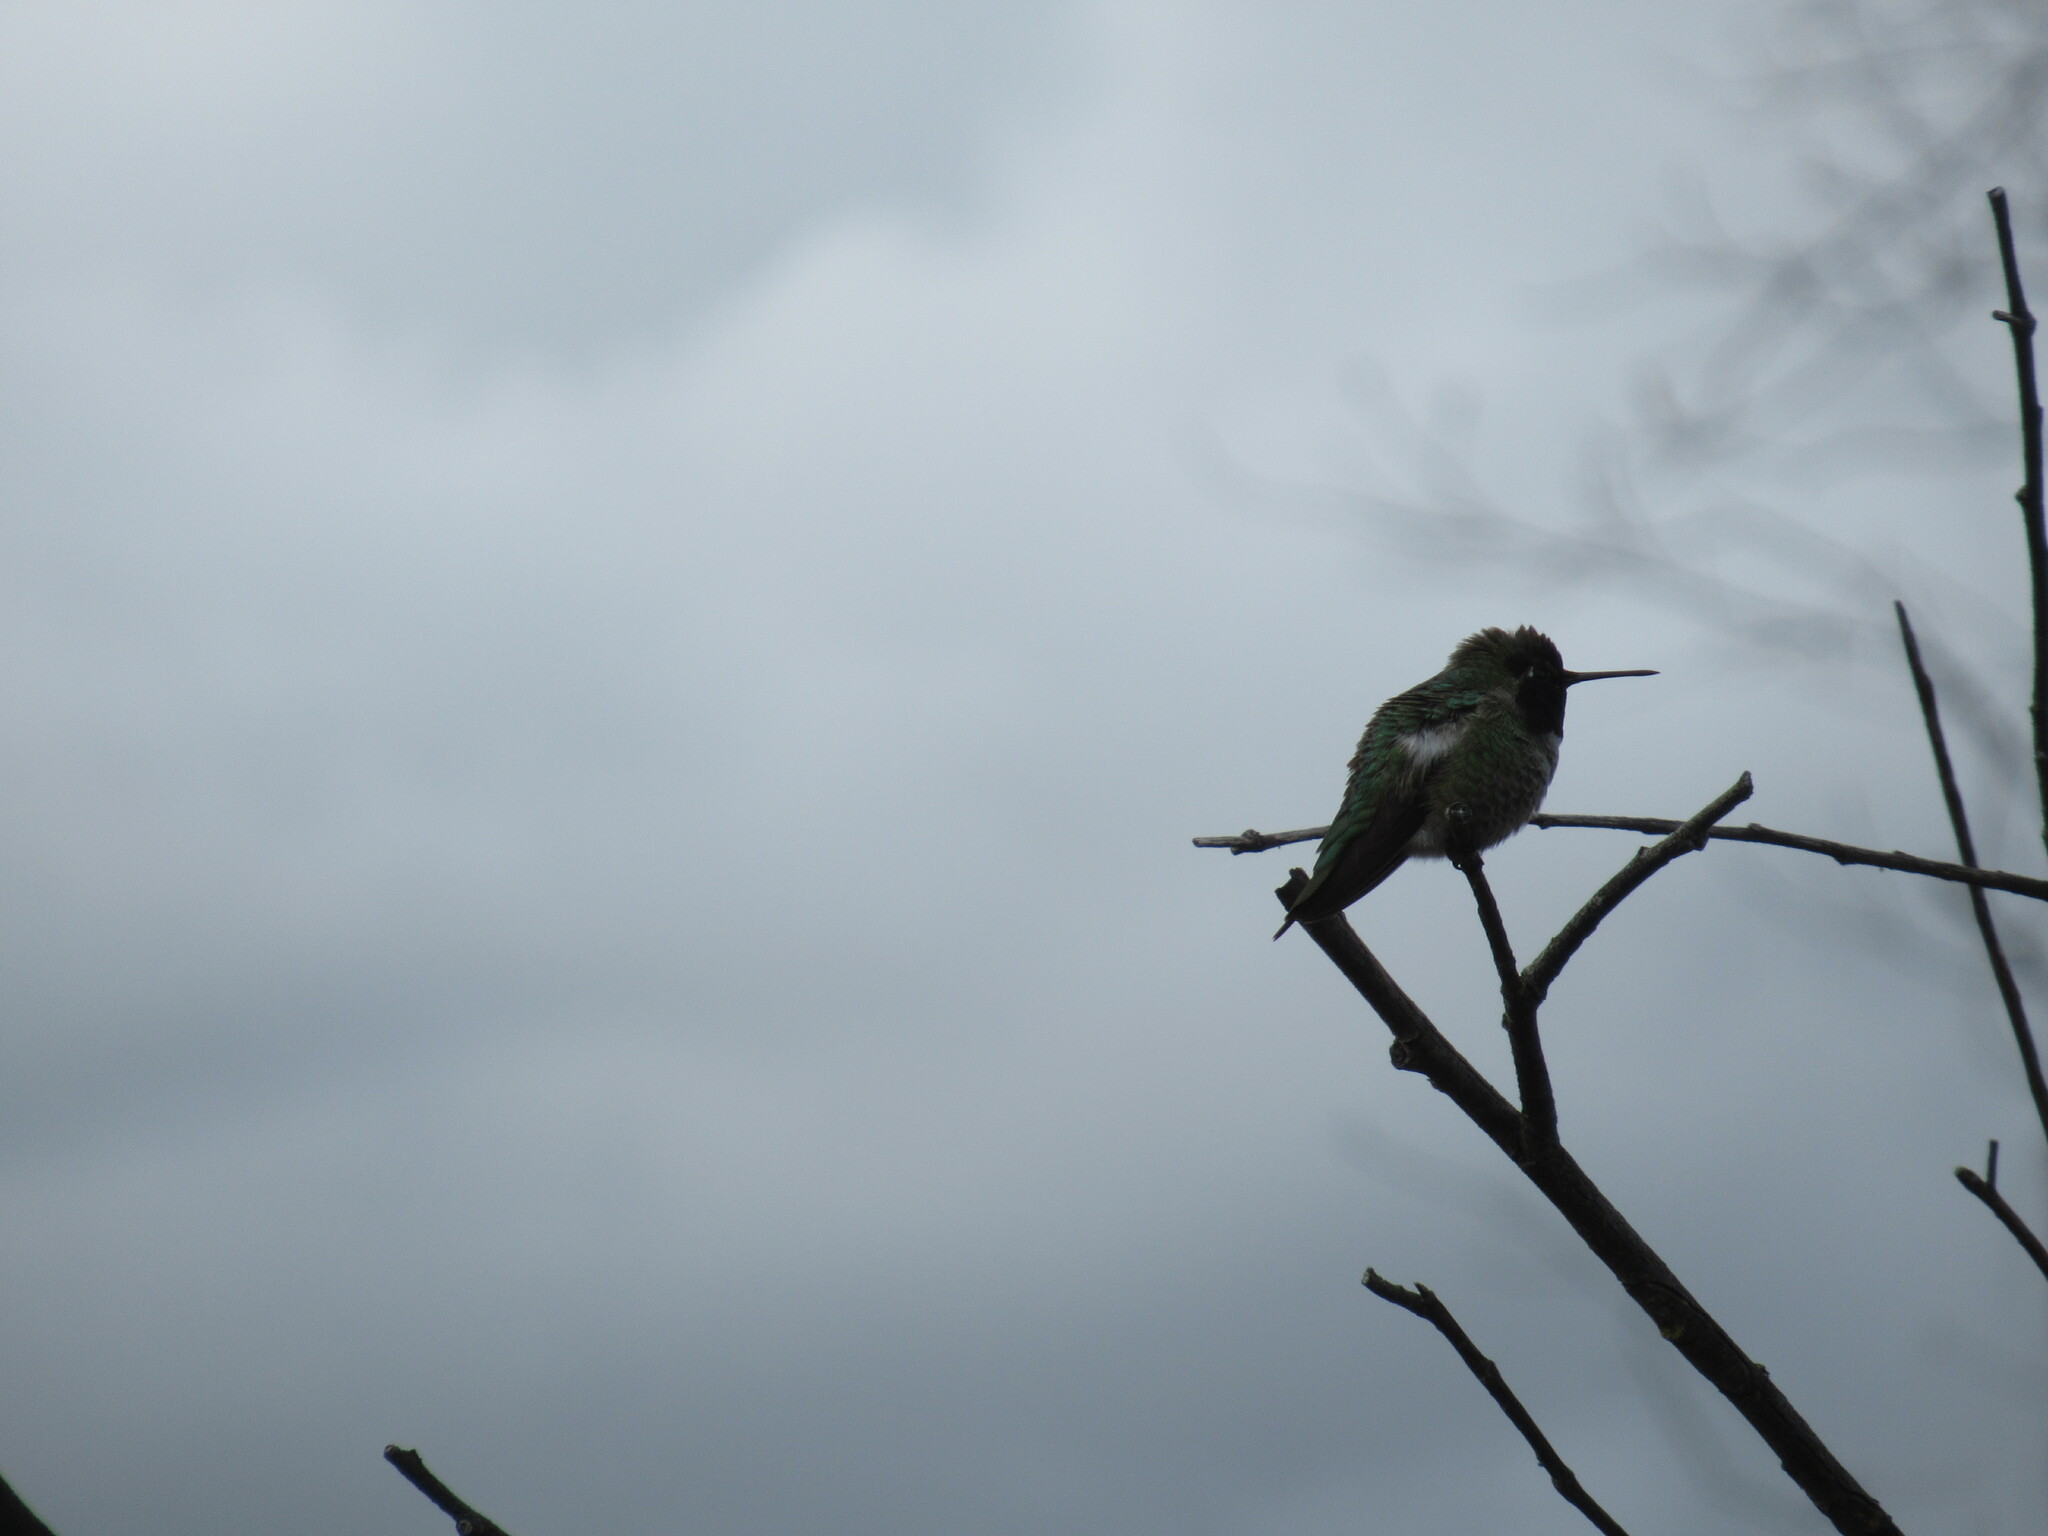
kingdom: Animalia
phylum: Chordata
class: Aves
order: Apodiformes
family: Trochilidae
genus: Calypte
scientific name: Calypte anna
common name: Anna's hummingbird
